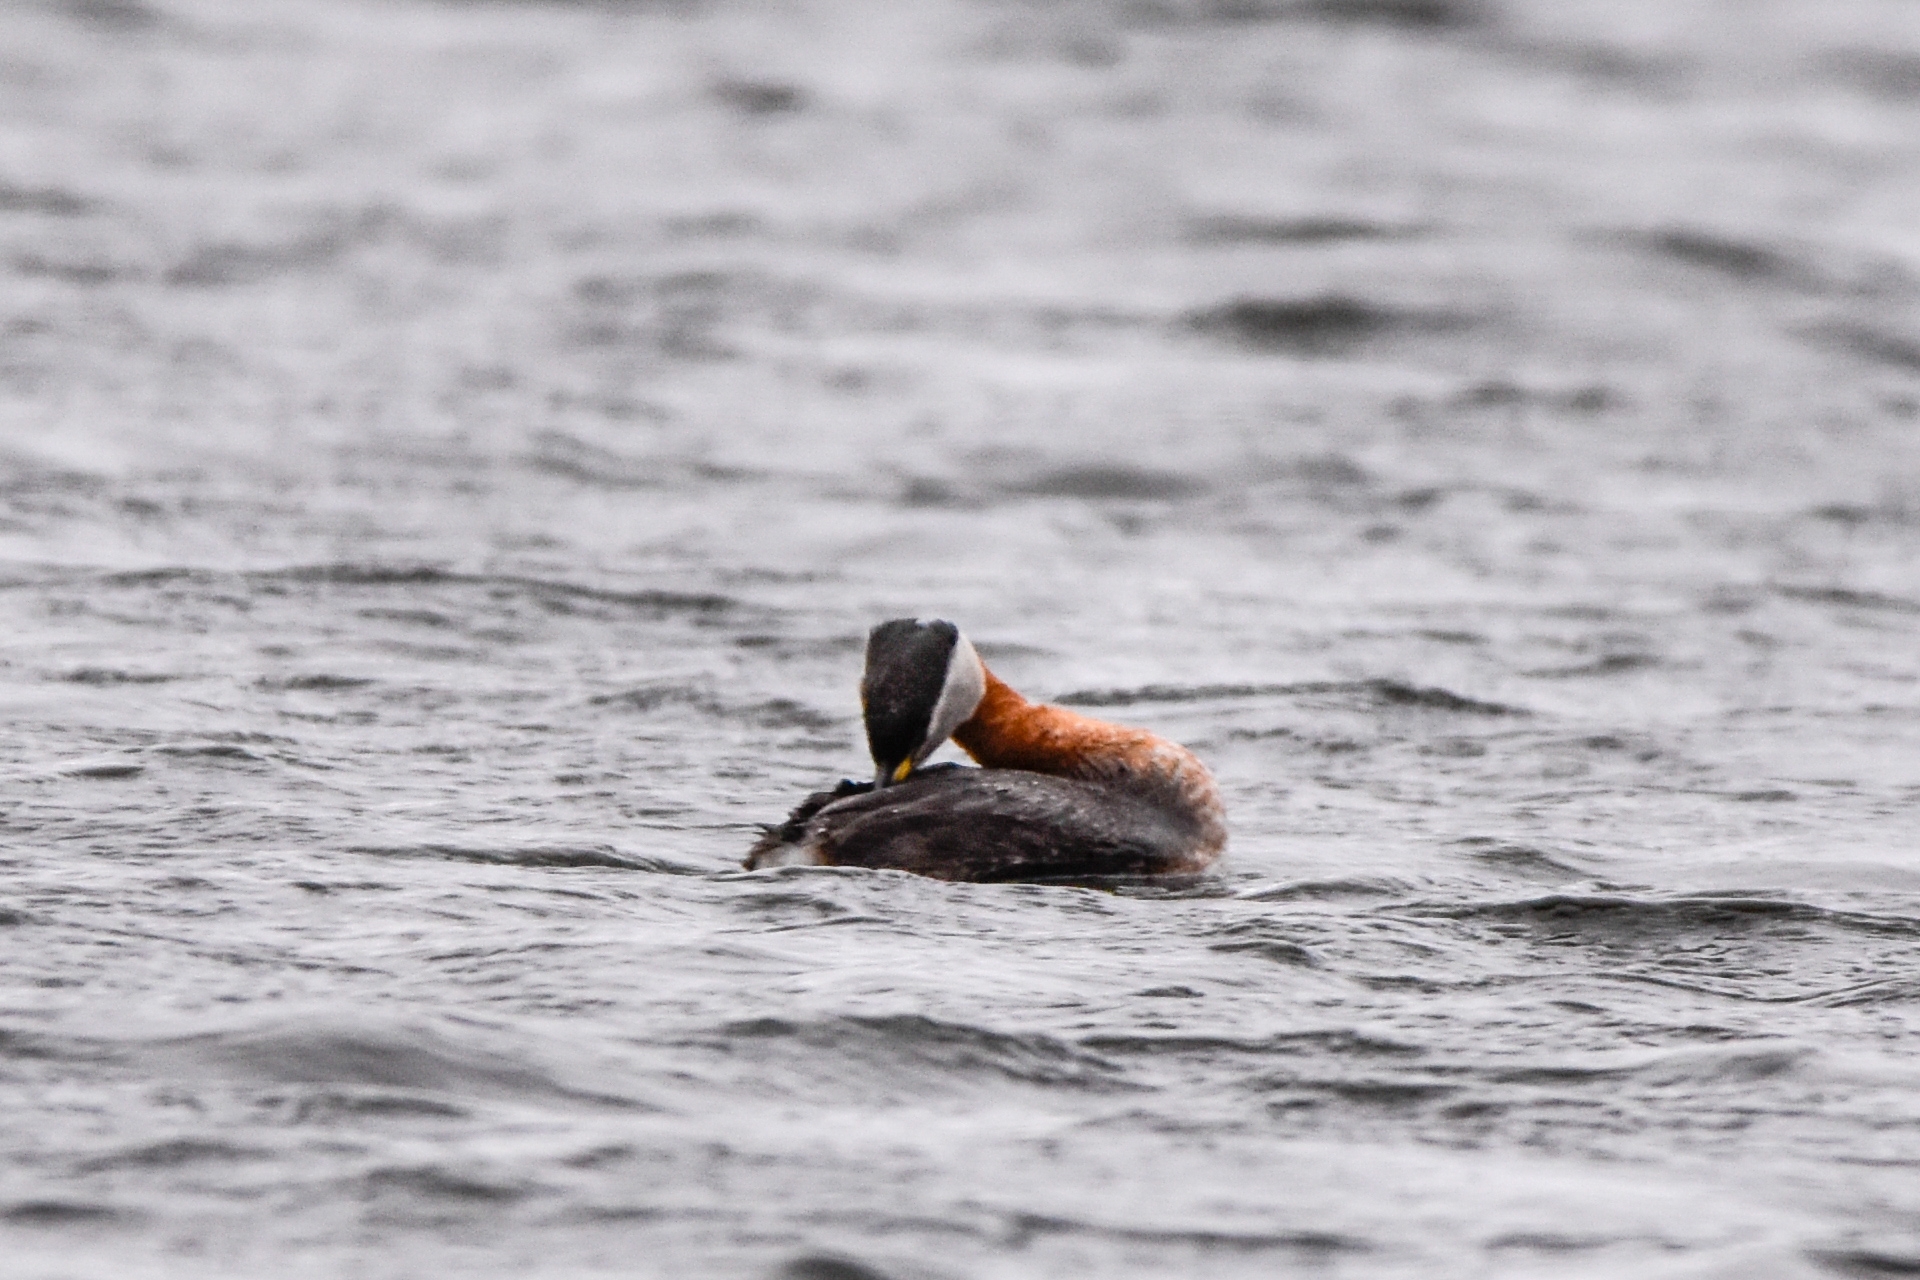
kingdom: Animalia
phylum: Chordata
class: Aves
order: Podicipediformes
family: Podicipedidae
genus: Podiceps
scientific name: Podiceps grisegena
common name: Red-necked grebe
